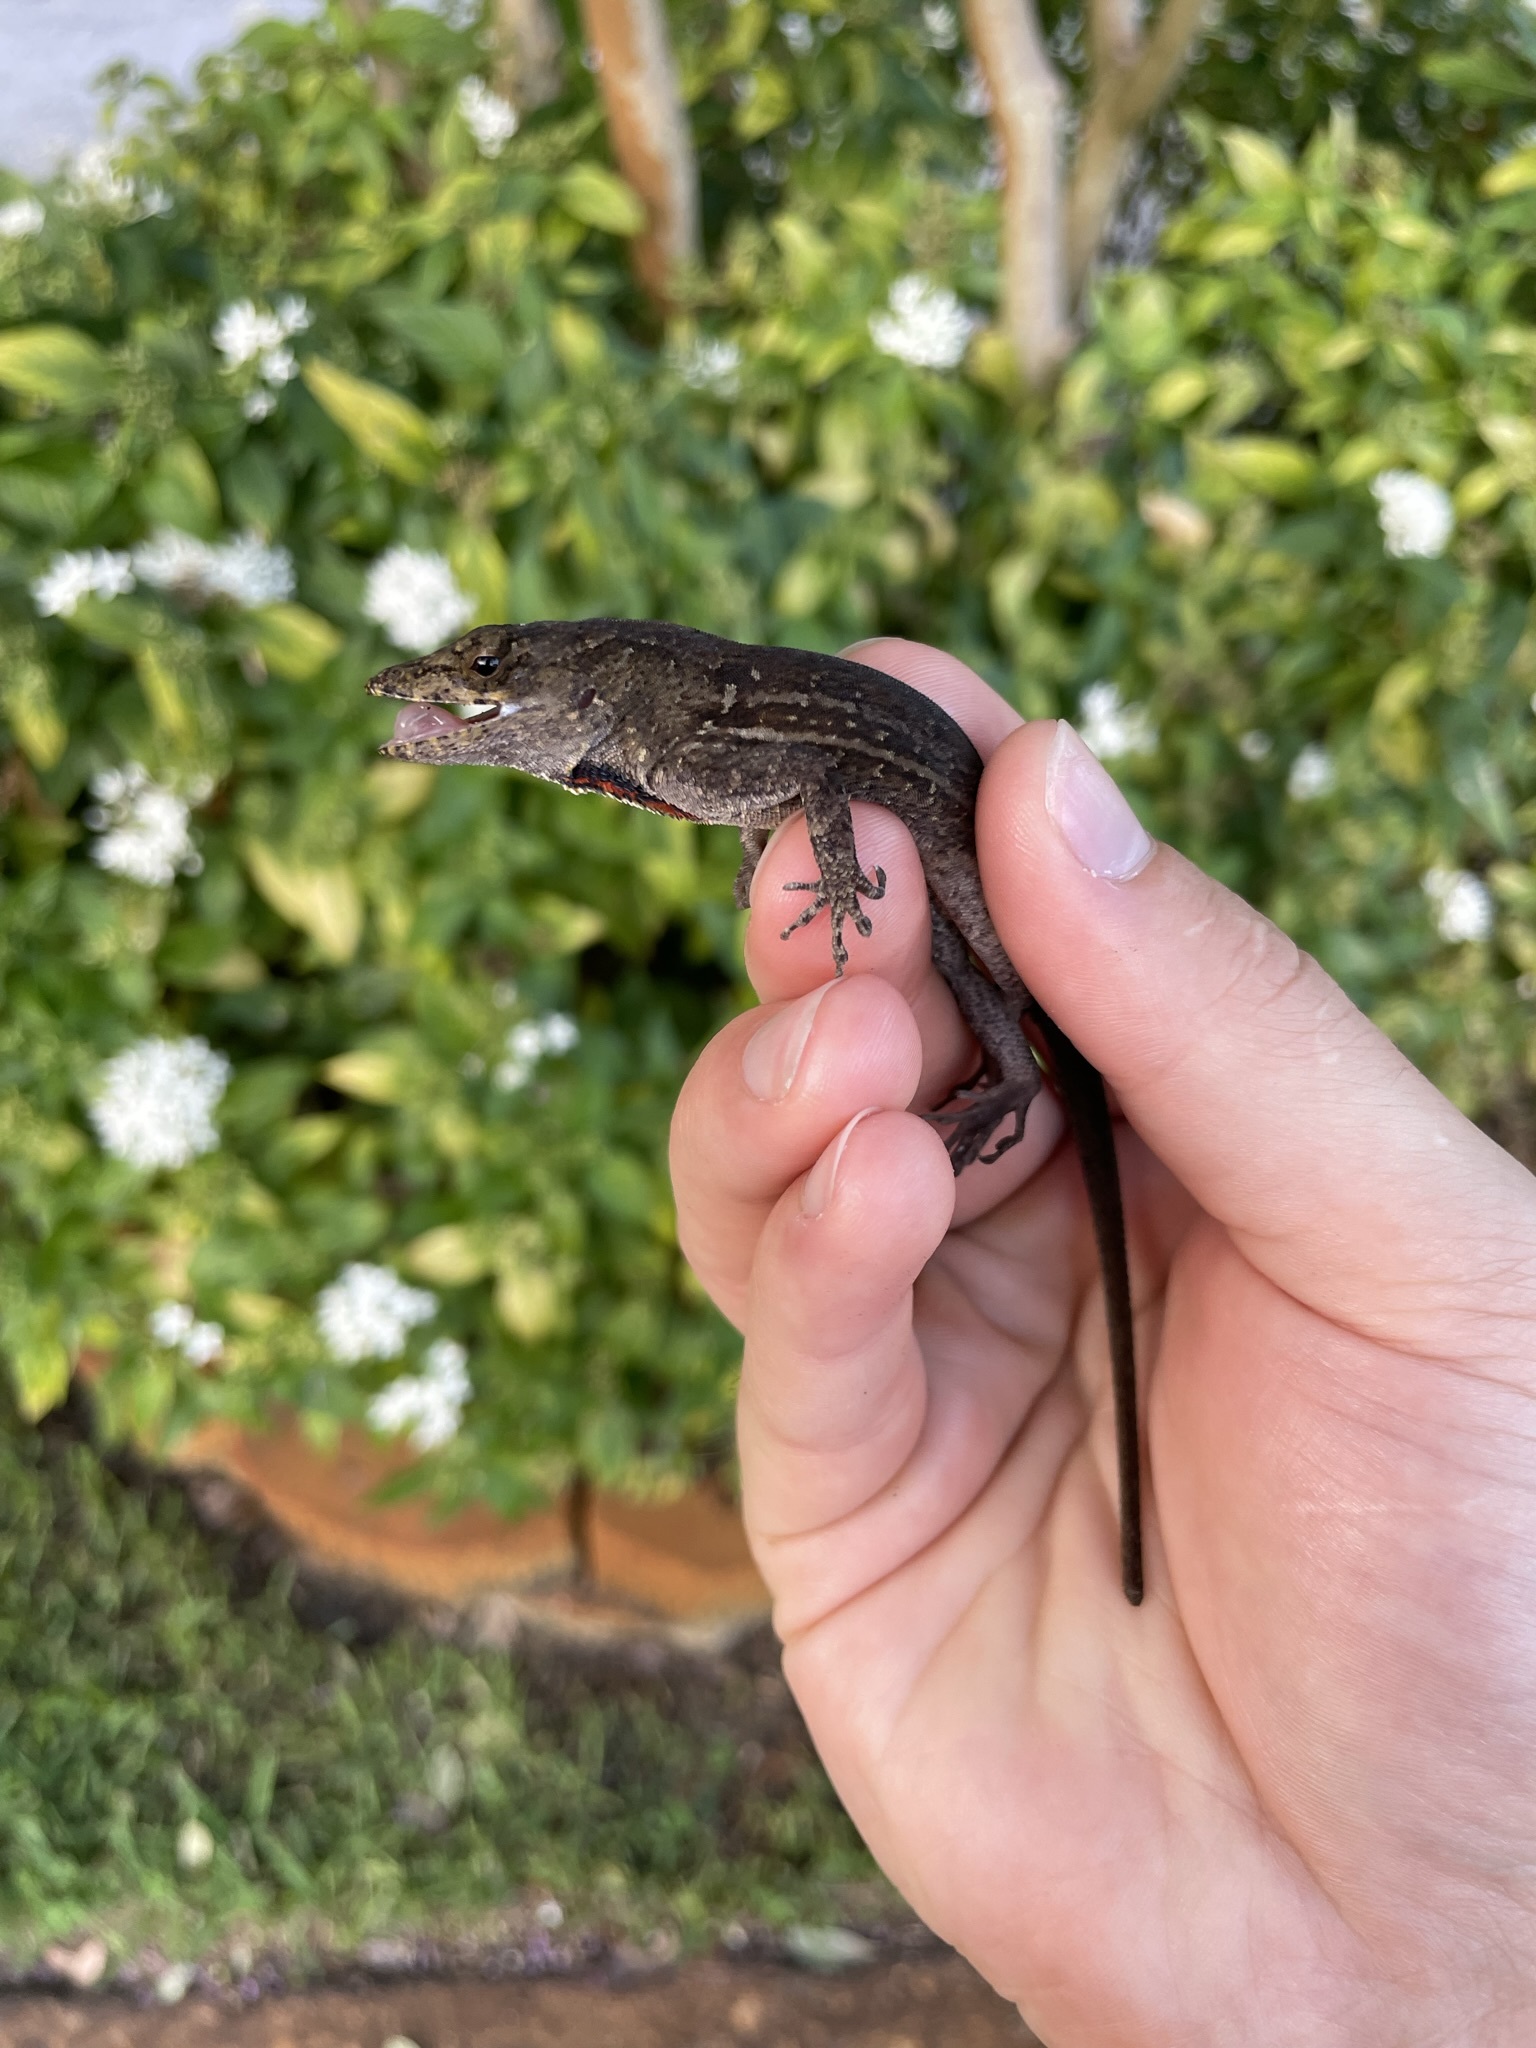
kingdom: Animalia
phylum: Chordata
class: Squamata
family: Dactyloidae
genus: Anolis
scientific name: Anolis sagrei
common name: Brown anole
